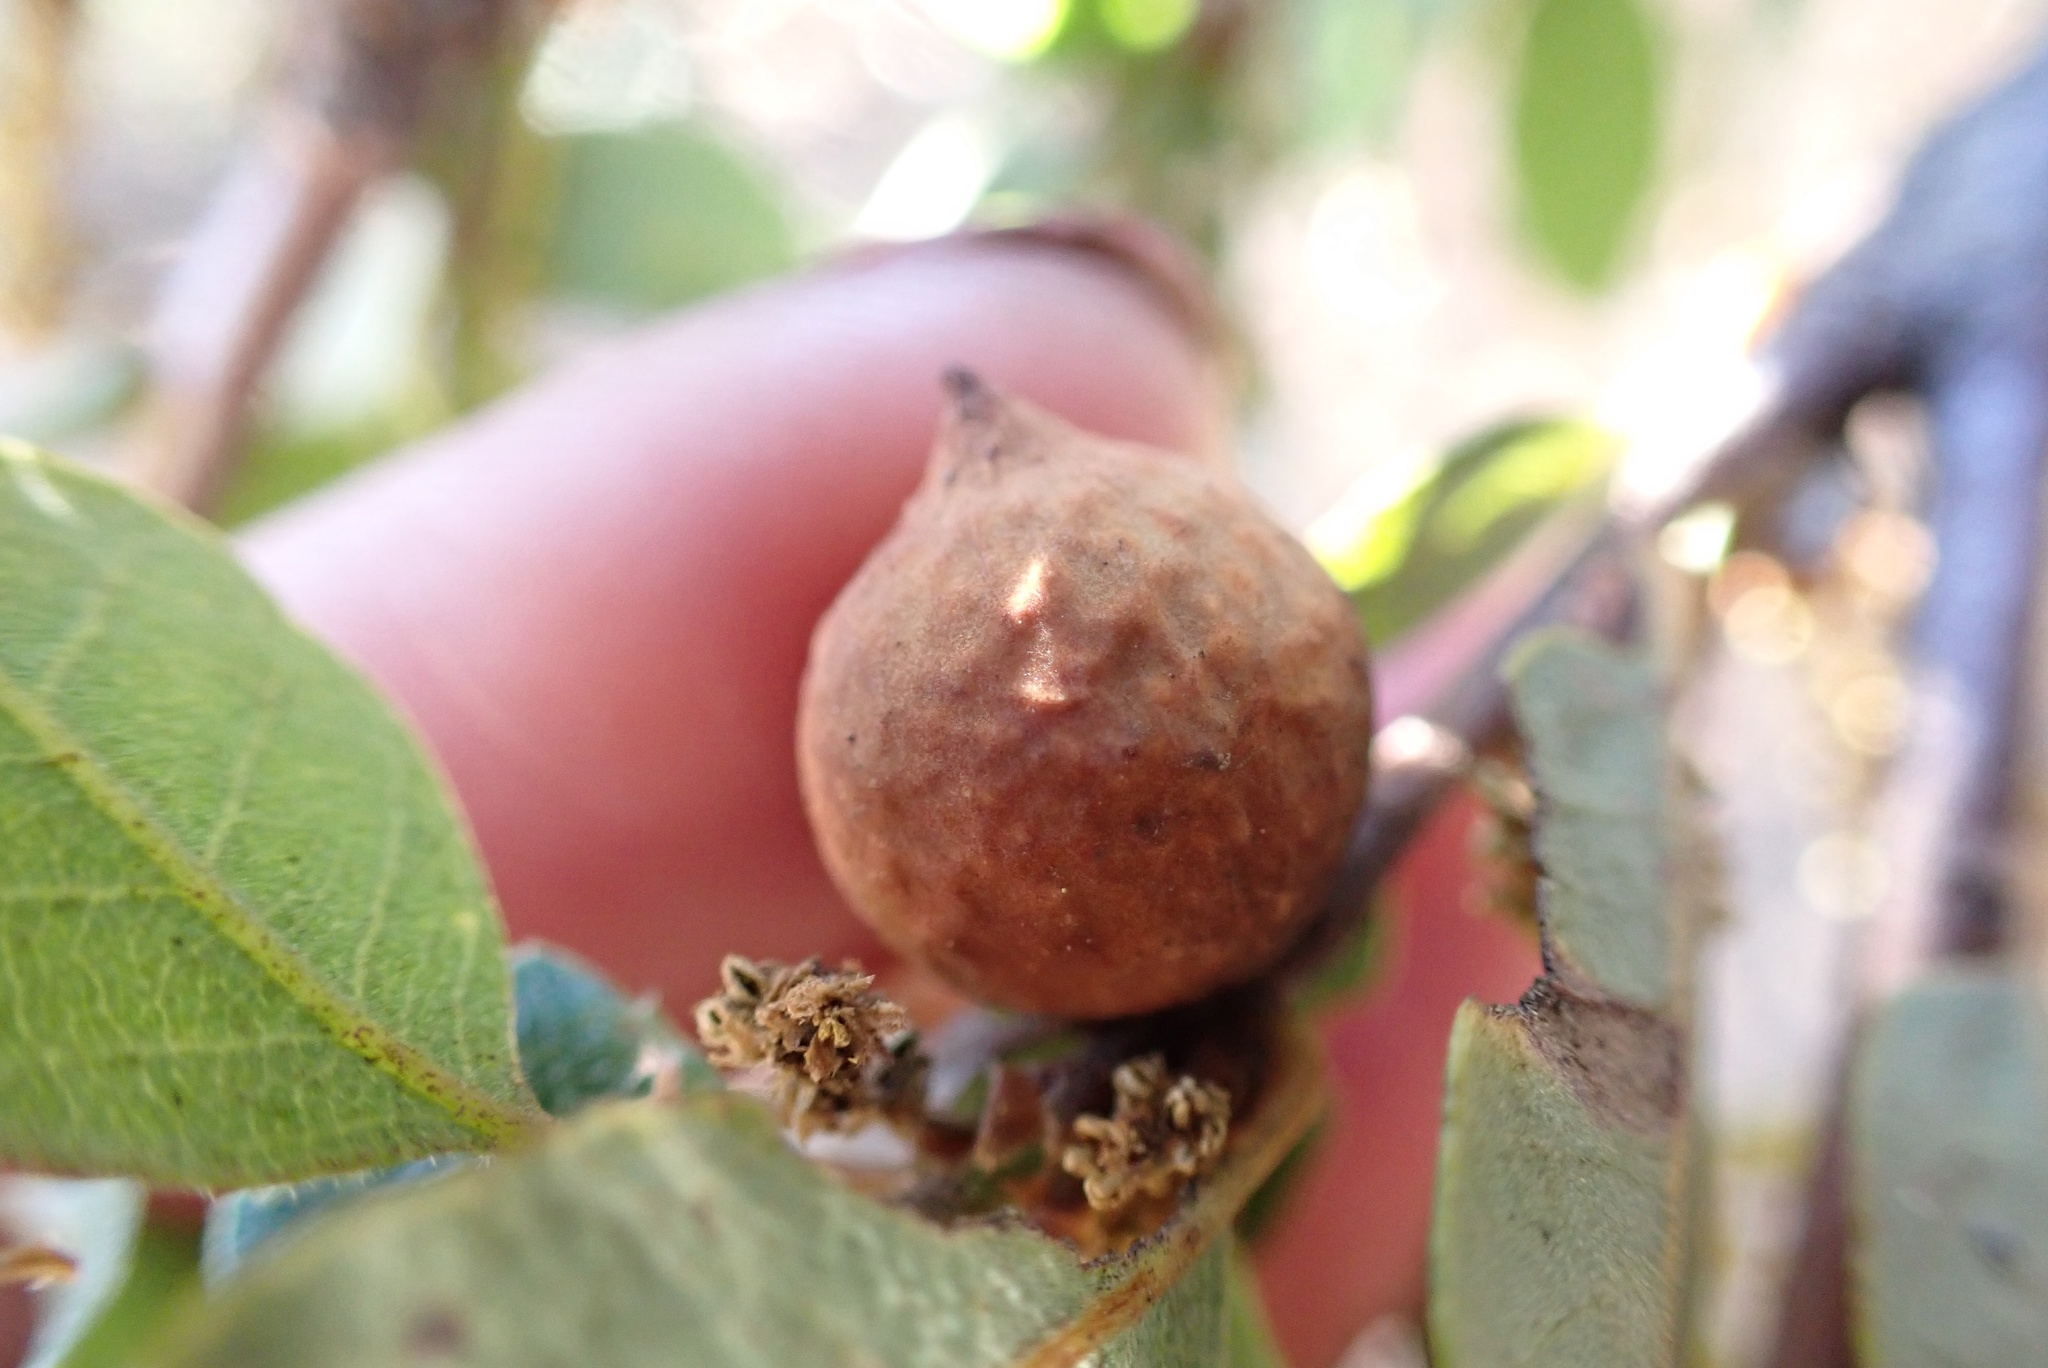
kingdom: Animalia
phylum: Arthropoda
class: Insecta
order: Hymenoptera
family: Cynipidae
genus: Burnettweldia
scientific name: Burnettweldia
